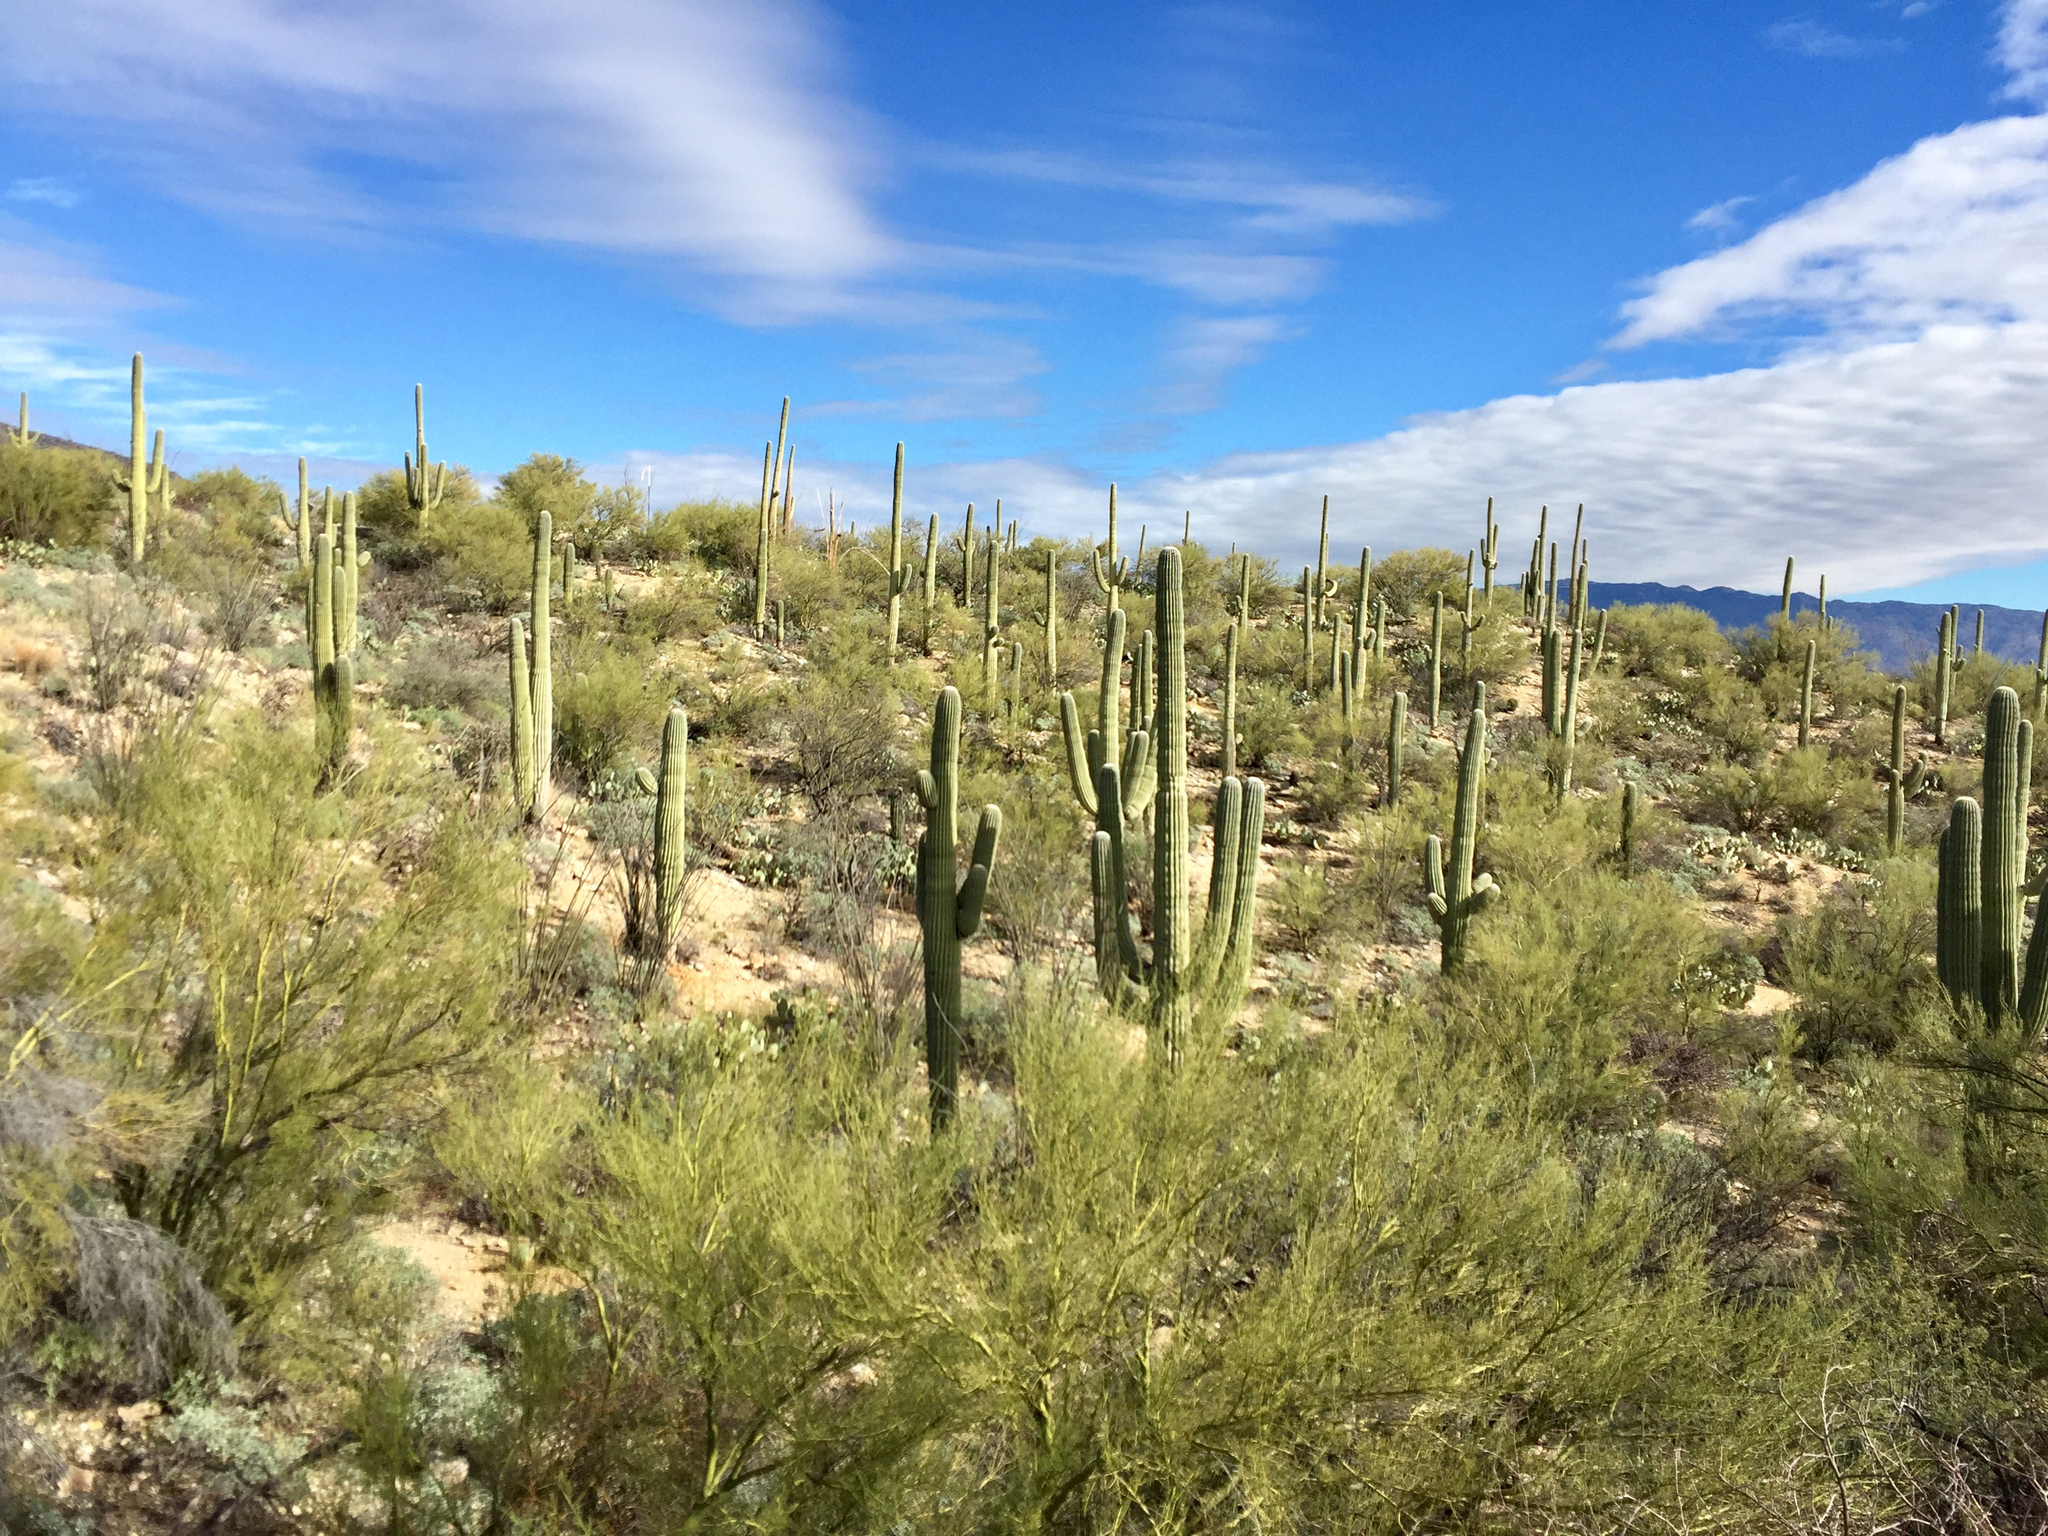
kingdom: Plantae
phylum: Tracheophyta
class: Magnoliopsida
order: Caryophyllales
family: Cactaceae
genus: Carnegiea
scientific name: Carnegiea gigantea
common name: Saguaro
